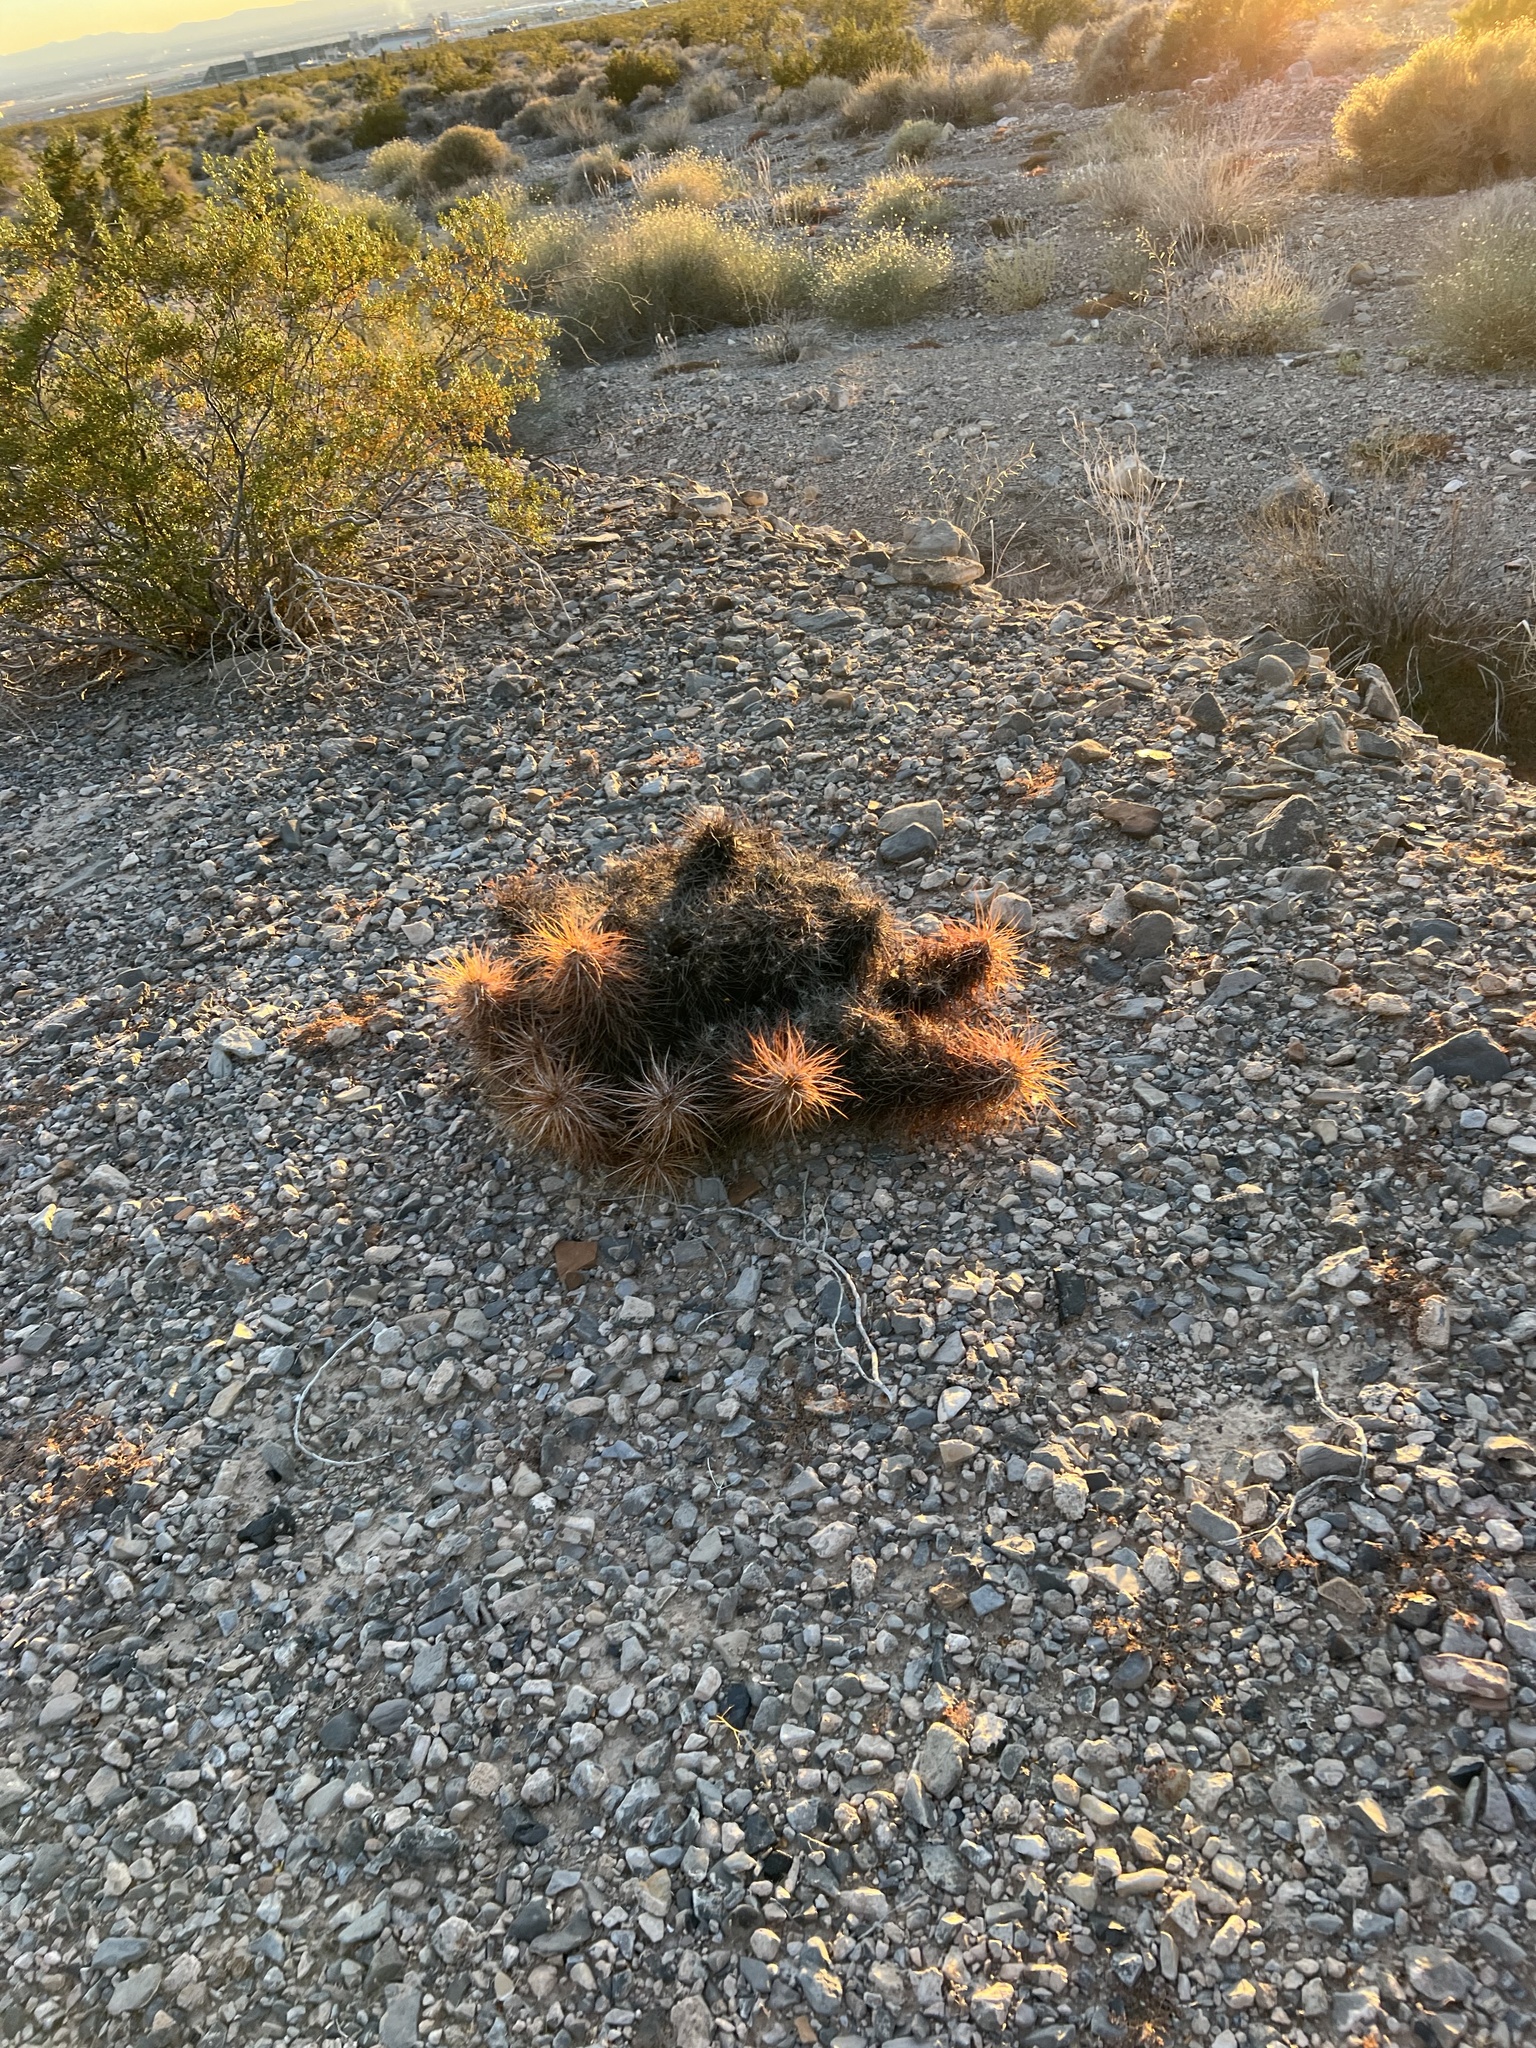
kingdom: Plantae
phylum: Tracheophyta
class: Magnoliopsida
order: Caryophyllales
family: Cactaceae
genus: Echinocereus
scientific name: Echinocereus engelmannii
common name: Engelmann's hedgehog cactus
